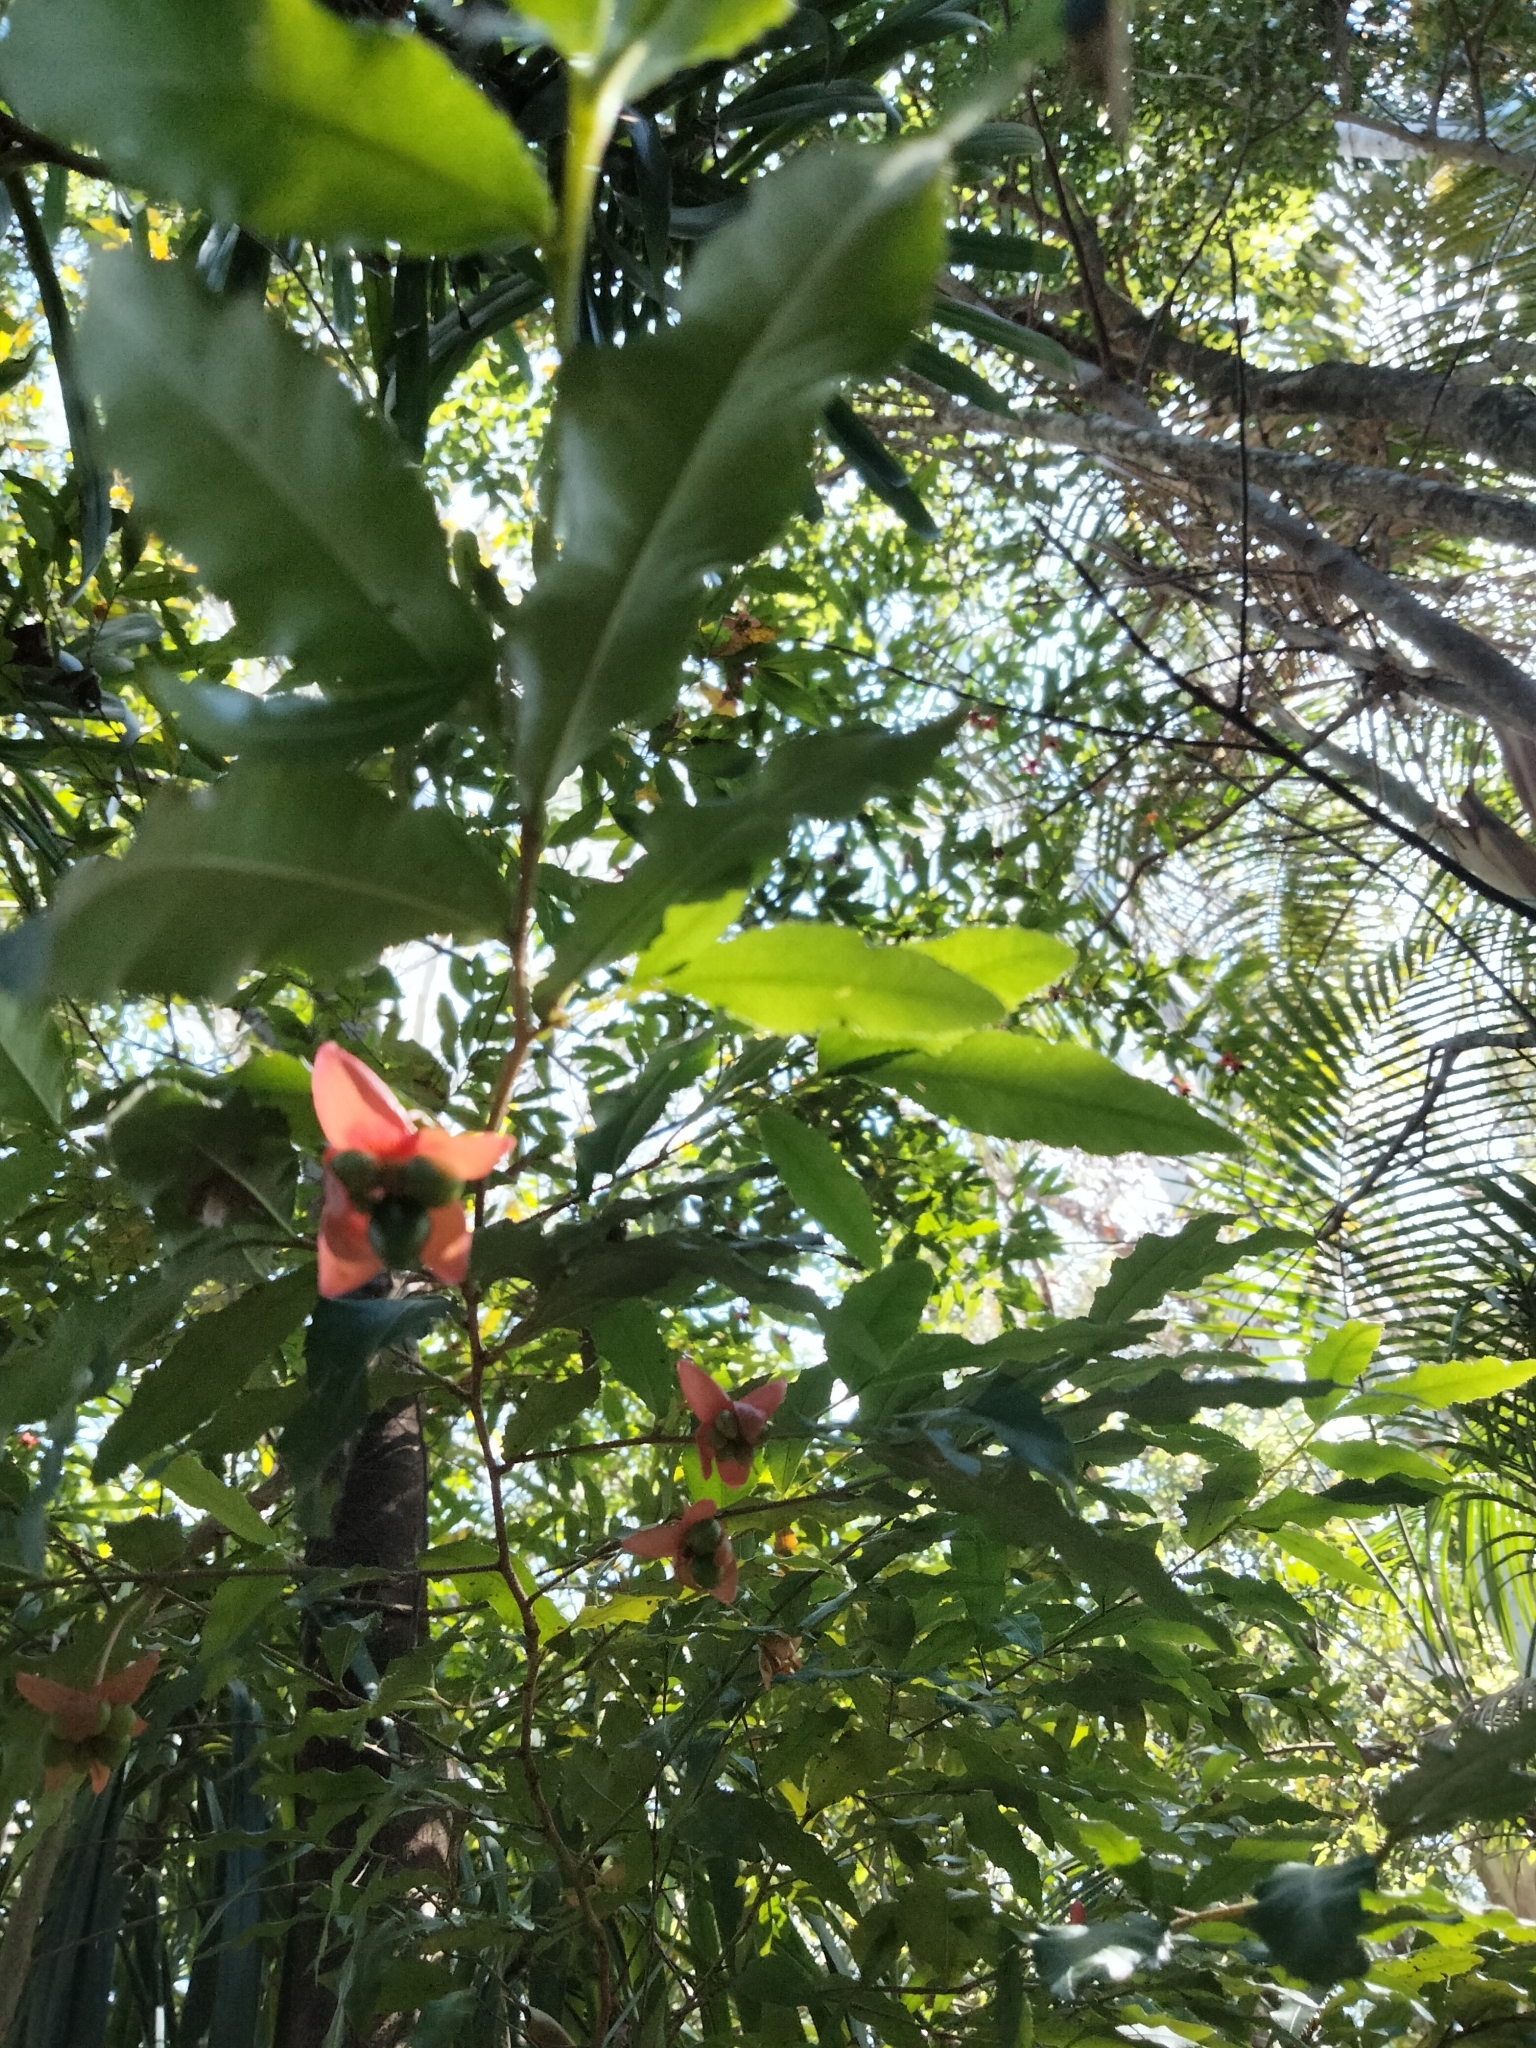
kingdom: Plantae
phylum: Tracheophyta
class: Magnoliopsida
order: Malpighiales
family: Ochnaceae
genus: Ochna
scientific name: Ochna serrulata
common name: Mickey mouse plant
